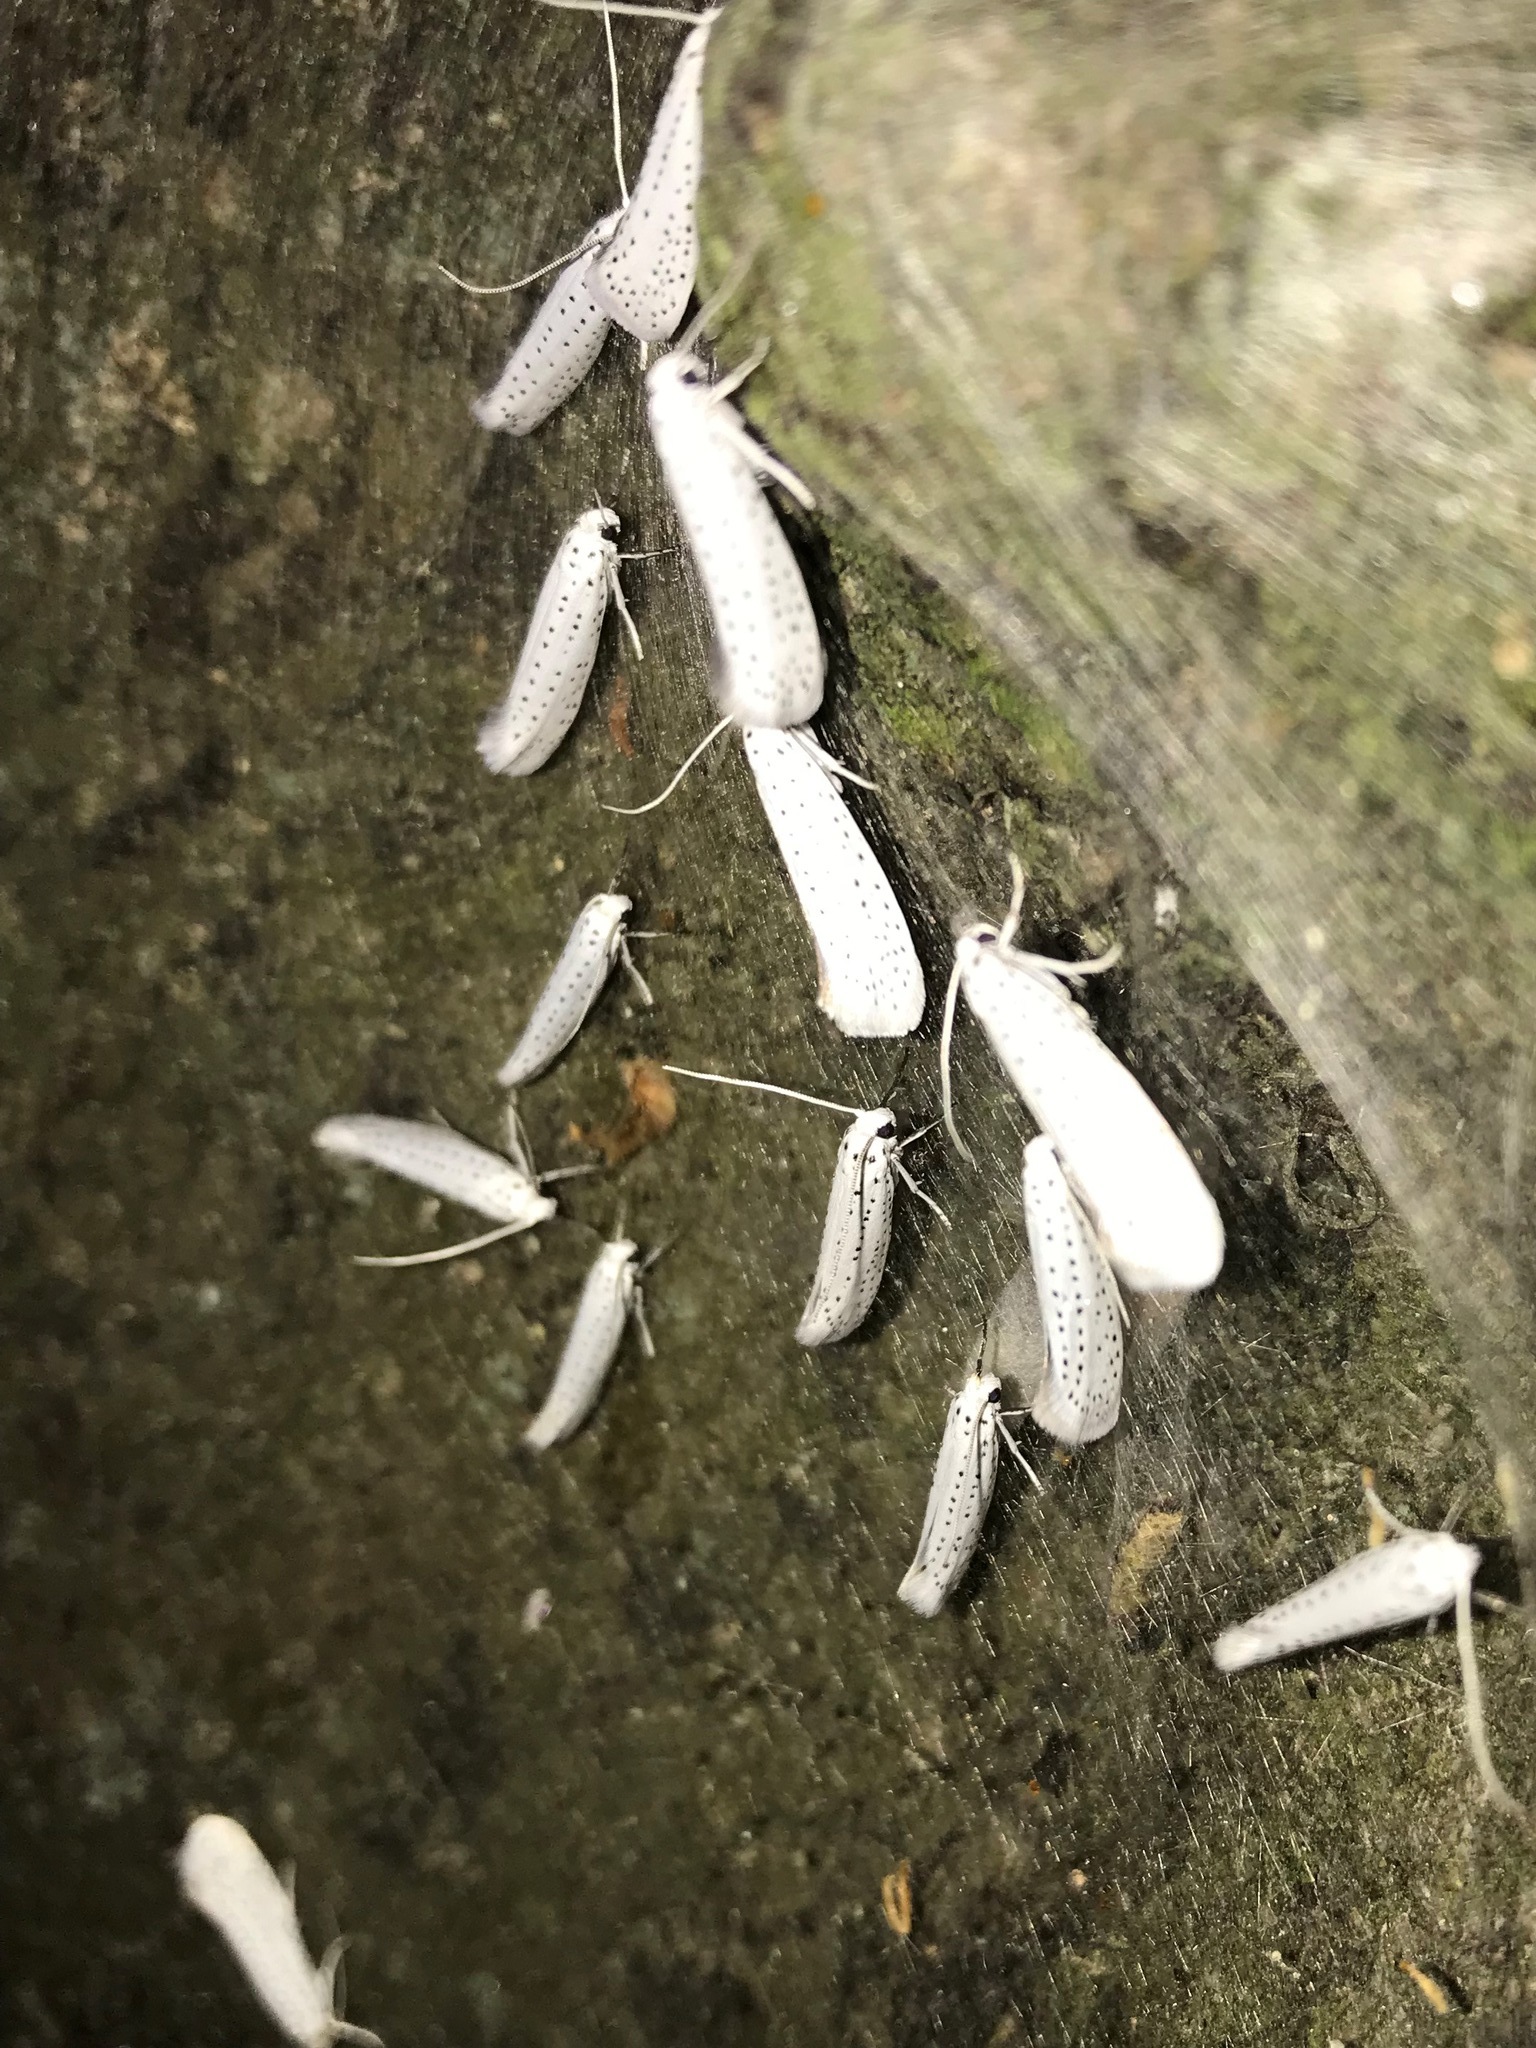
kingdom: Animalia
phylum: Arthropoda
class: Insecta
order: Lepidoptera
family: Yponomeutidae
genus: Yponomeuta
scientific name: Yponomeuta evonymella
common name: Bird-cherry ermine
